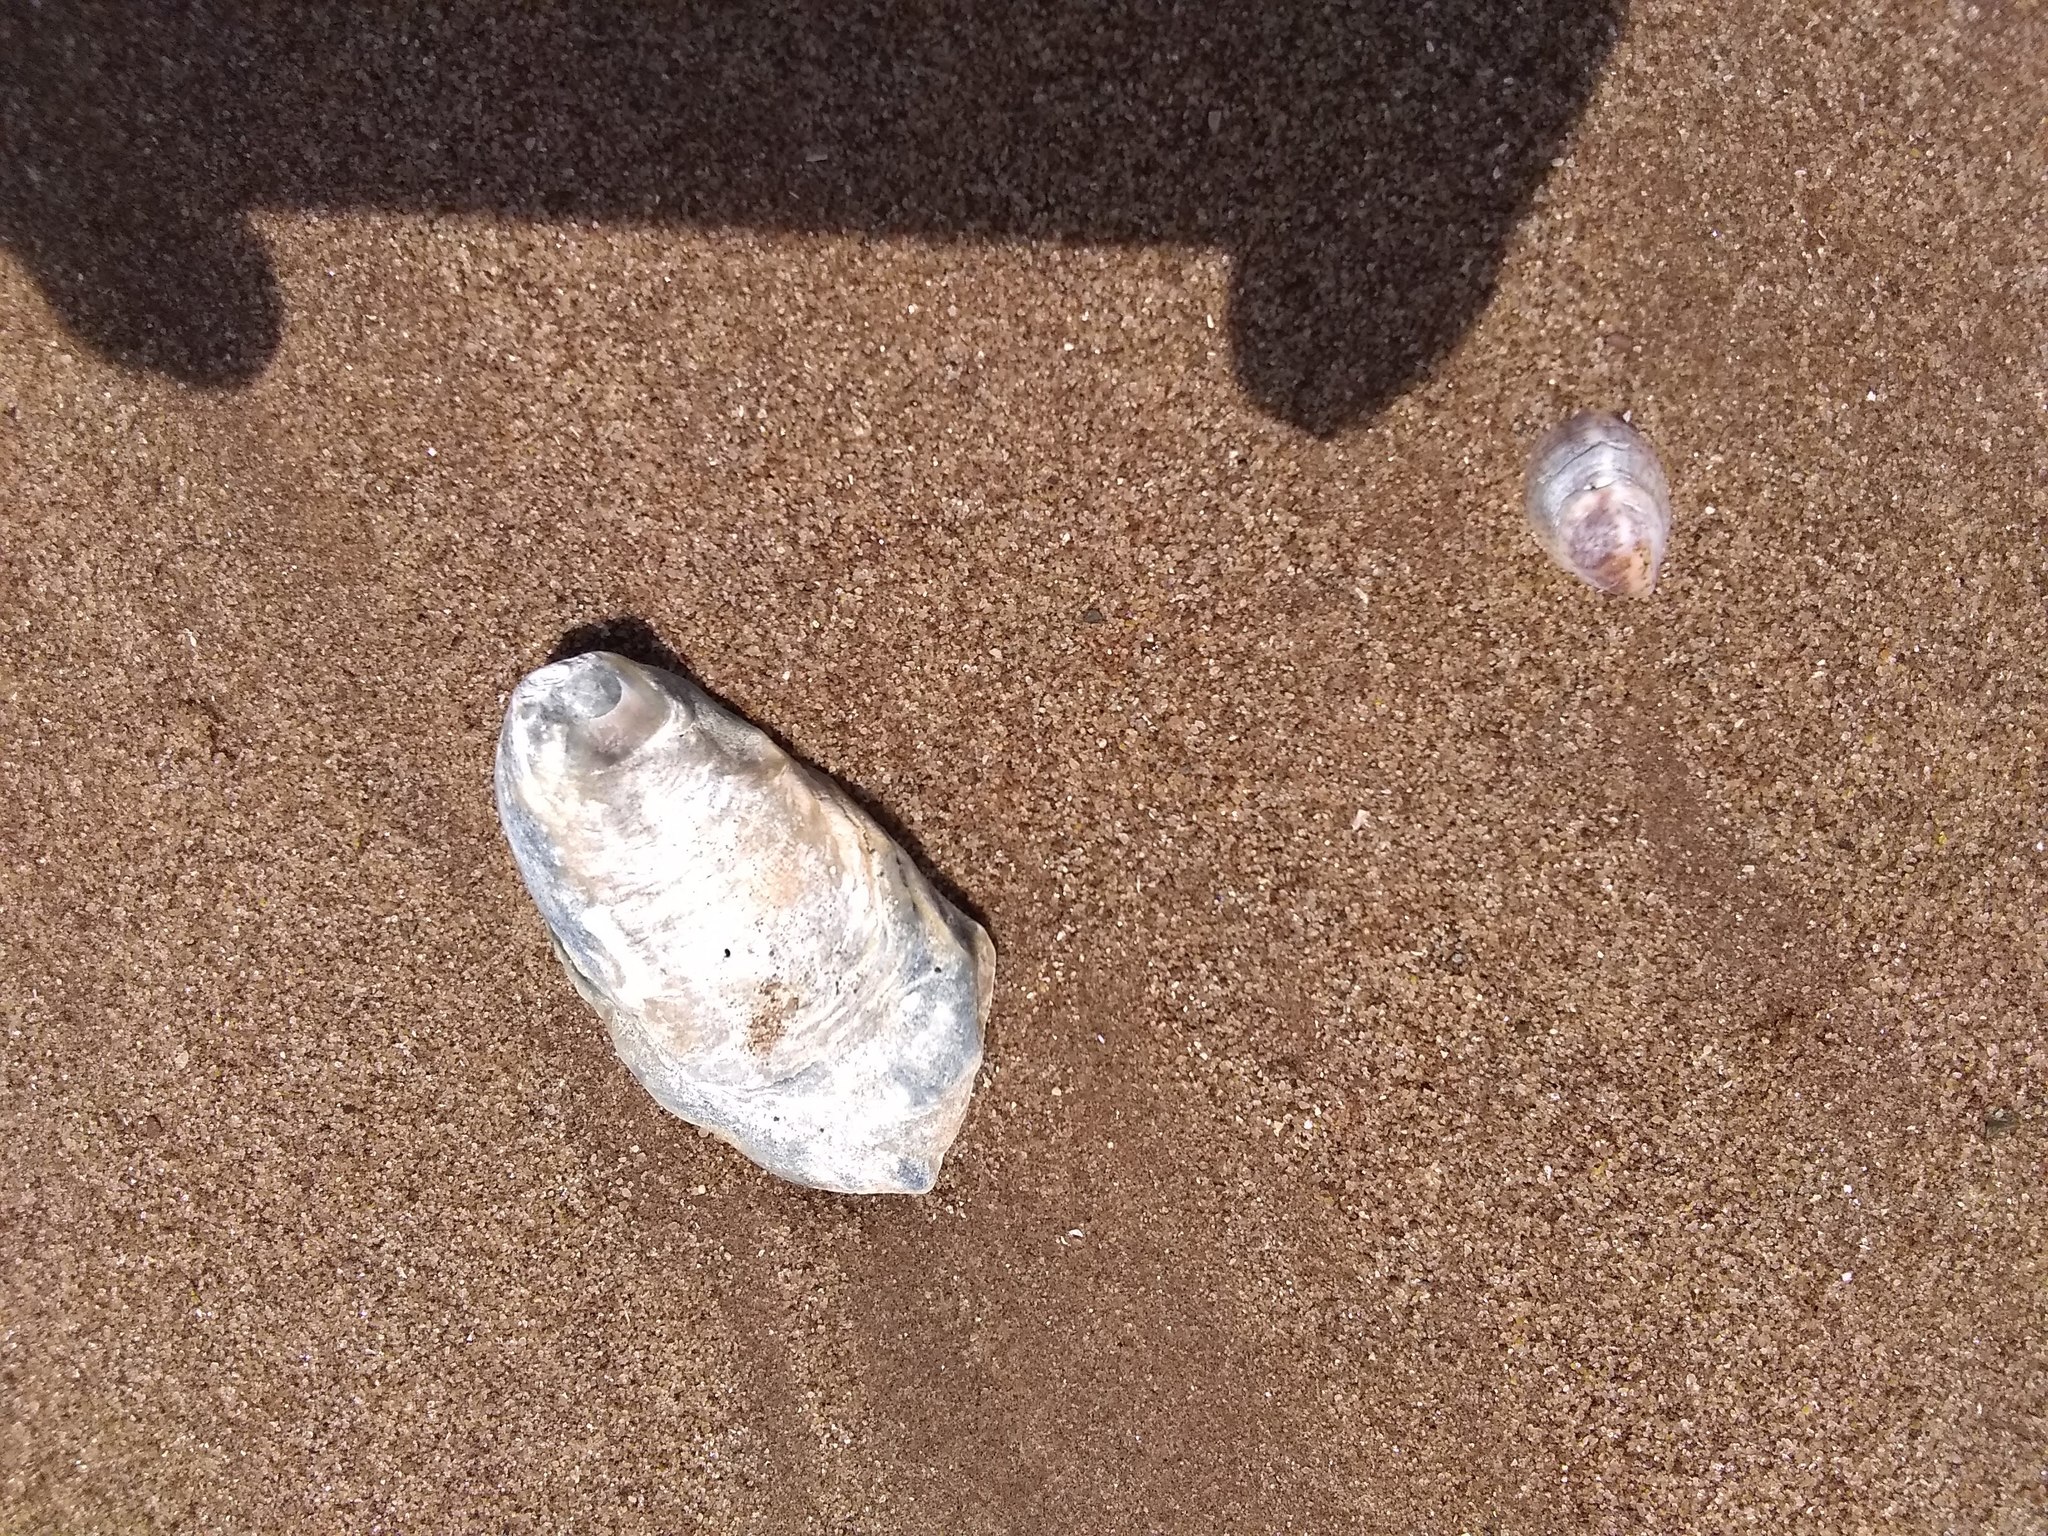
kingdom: Animalia
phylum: Mollusca
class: Bivalvia
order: Ostreida
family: Ostreidae
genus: Crassostrea
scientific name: Crassostrea virginica
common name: American oyster
